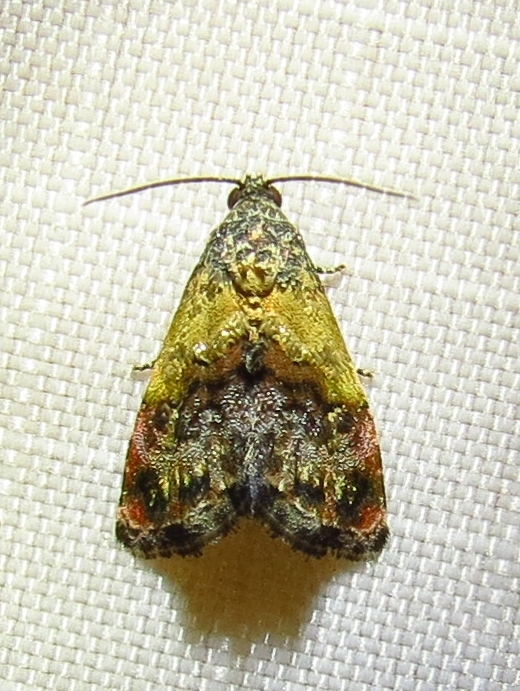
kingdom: Animalia
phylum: Arthropoda
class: Insecta
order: Lepidoptera
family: Noctuidae
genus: Tripudia
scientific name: Tripudia flavofasciata
